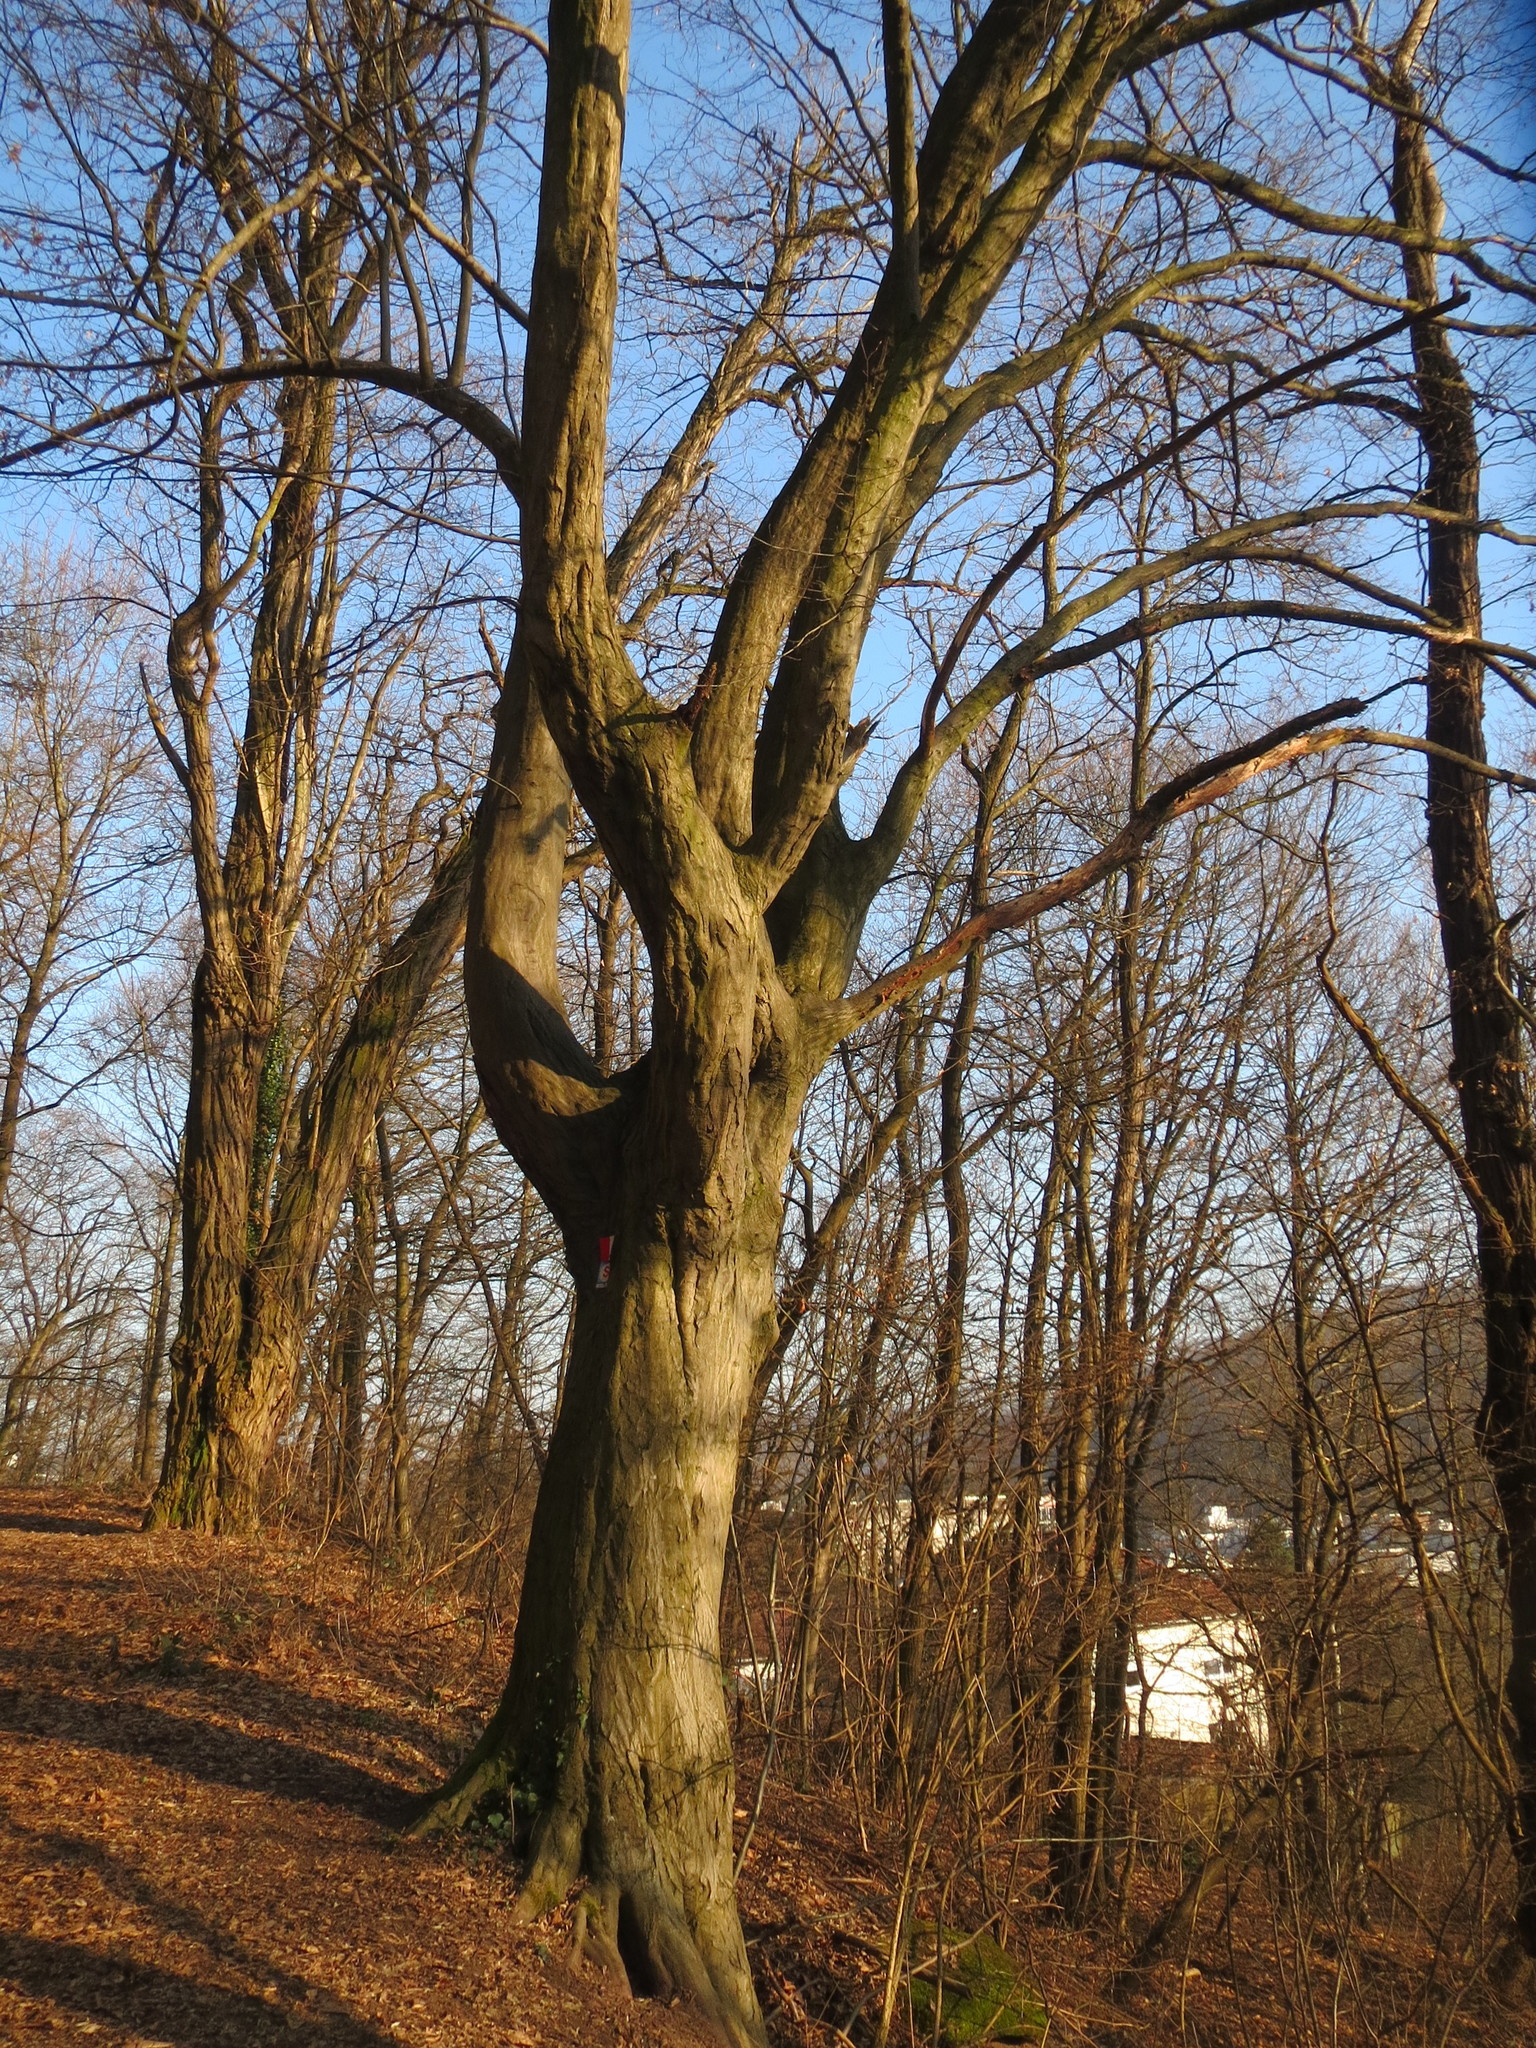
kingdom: Plantae
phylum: Tracheophyta
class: Magnoliopsida
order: Fagales
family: Betulaceae
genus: Carpinus
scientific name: Carpinus betulus
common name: Hornbeam
